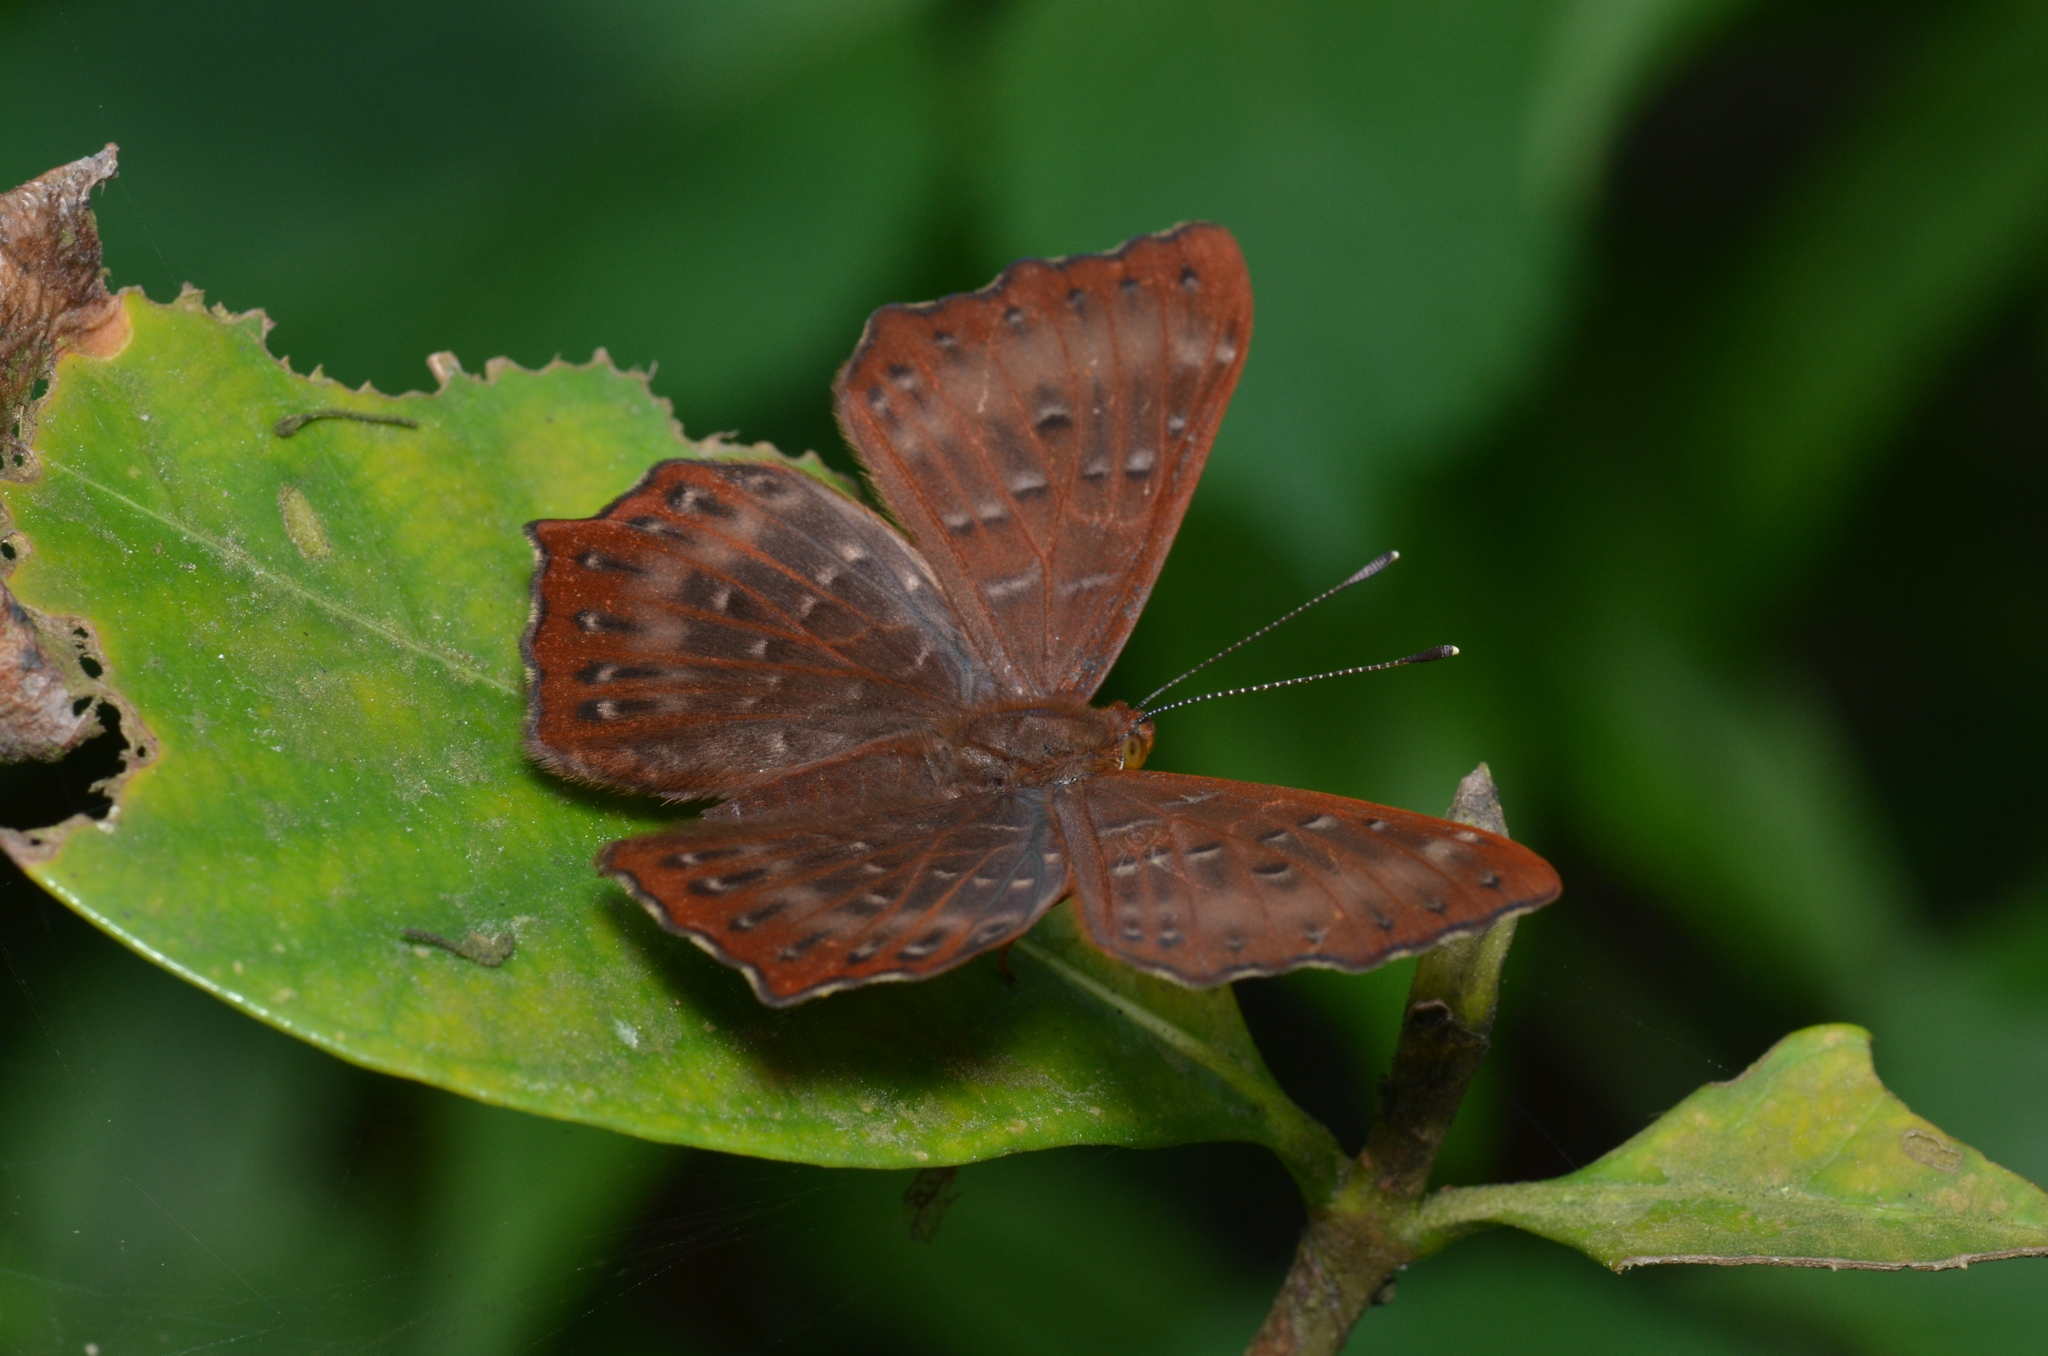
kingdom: Animalia
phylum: Arthropoda
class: Insecta
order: Lepidoptera
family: Riodinidae
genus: Zemeros
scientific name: Zemeros flegyas
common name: Punchinello
